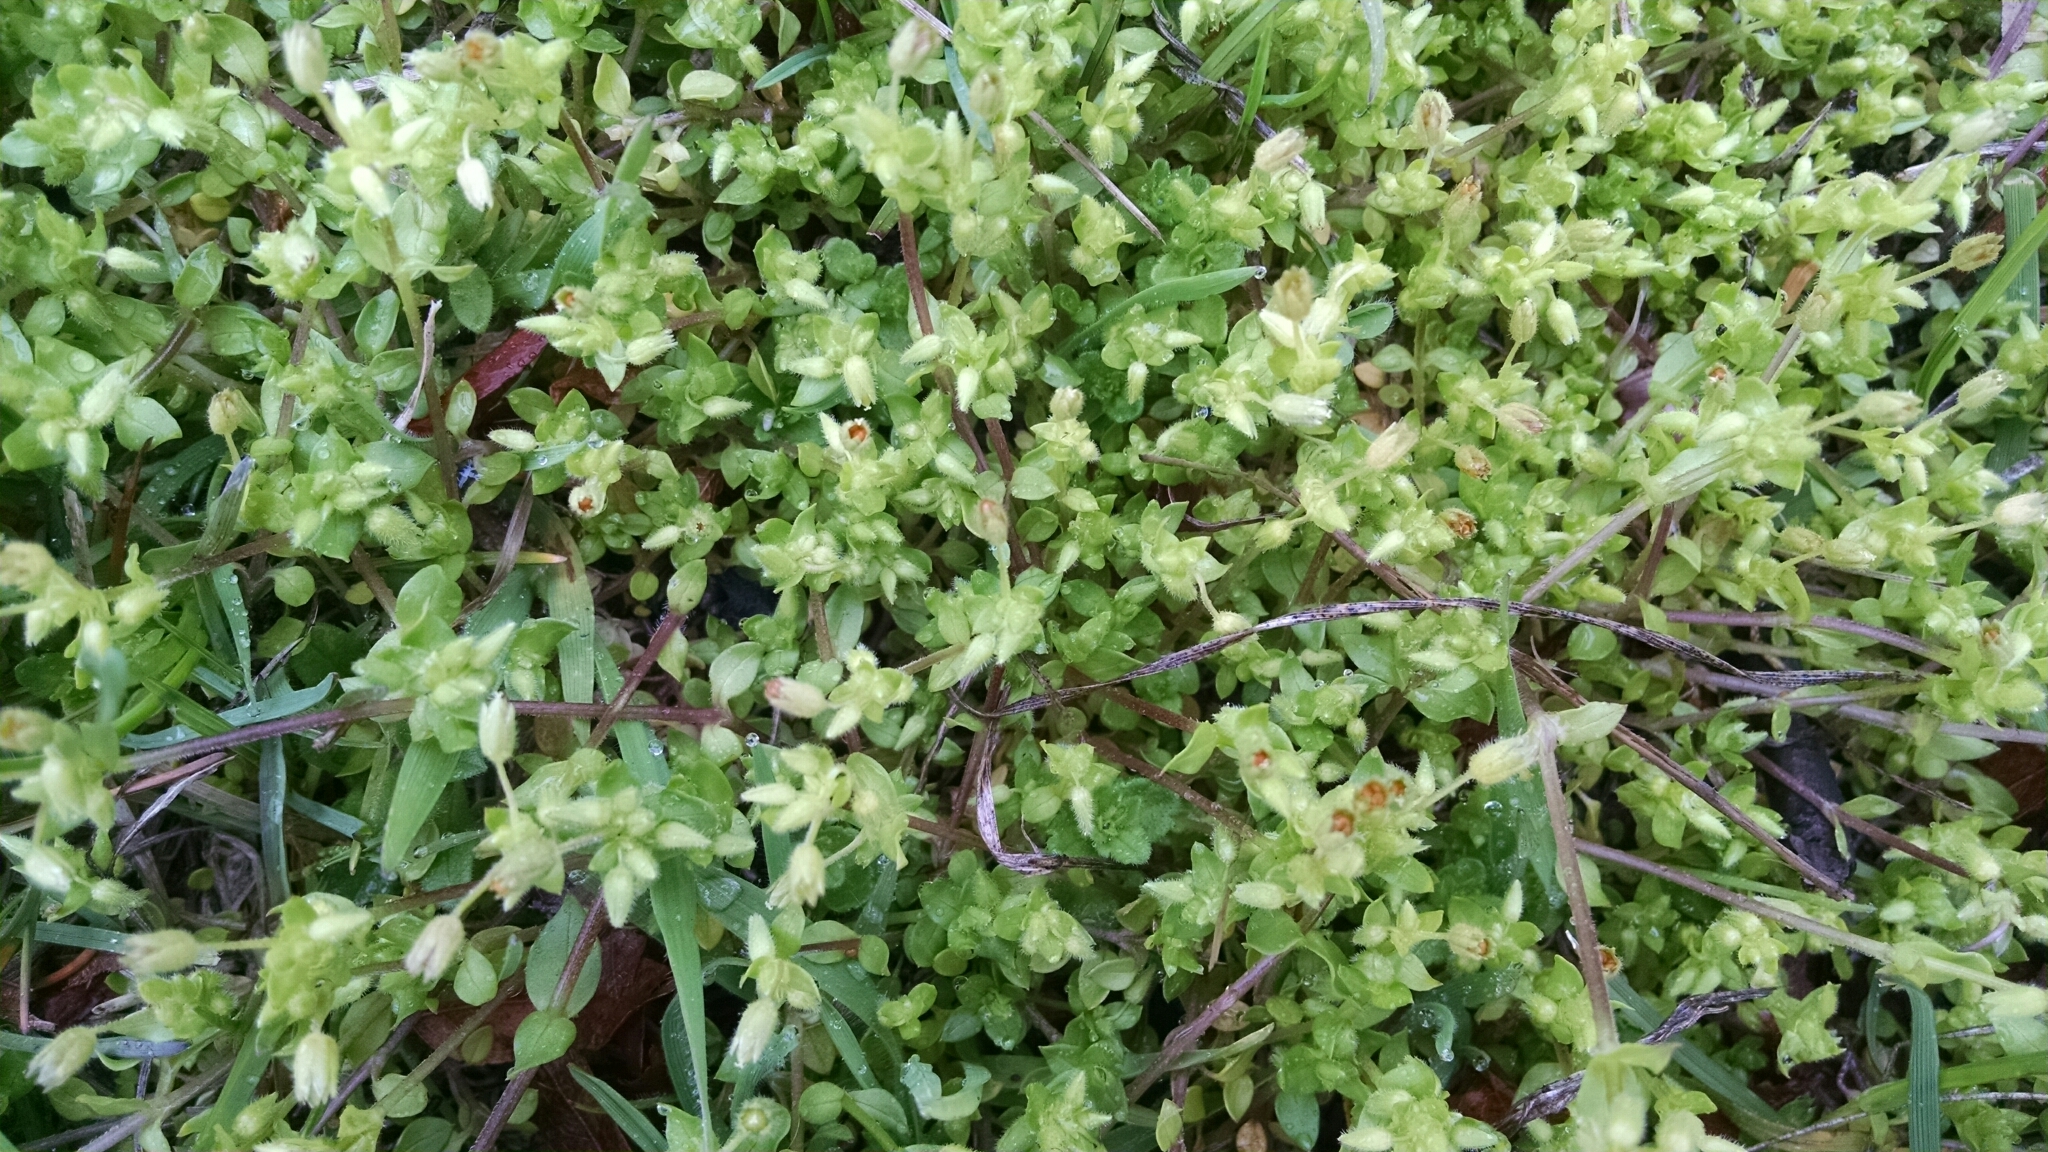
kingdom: Plantae
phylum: Tracheophyta
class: Magnoliopsida
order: Caryophyllales
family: Caryophyllaceae
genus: Stellaria
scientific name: Stellaria media
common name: Common chickweed
